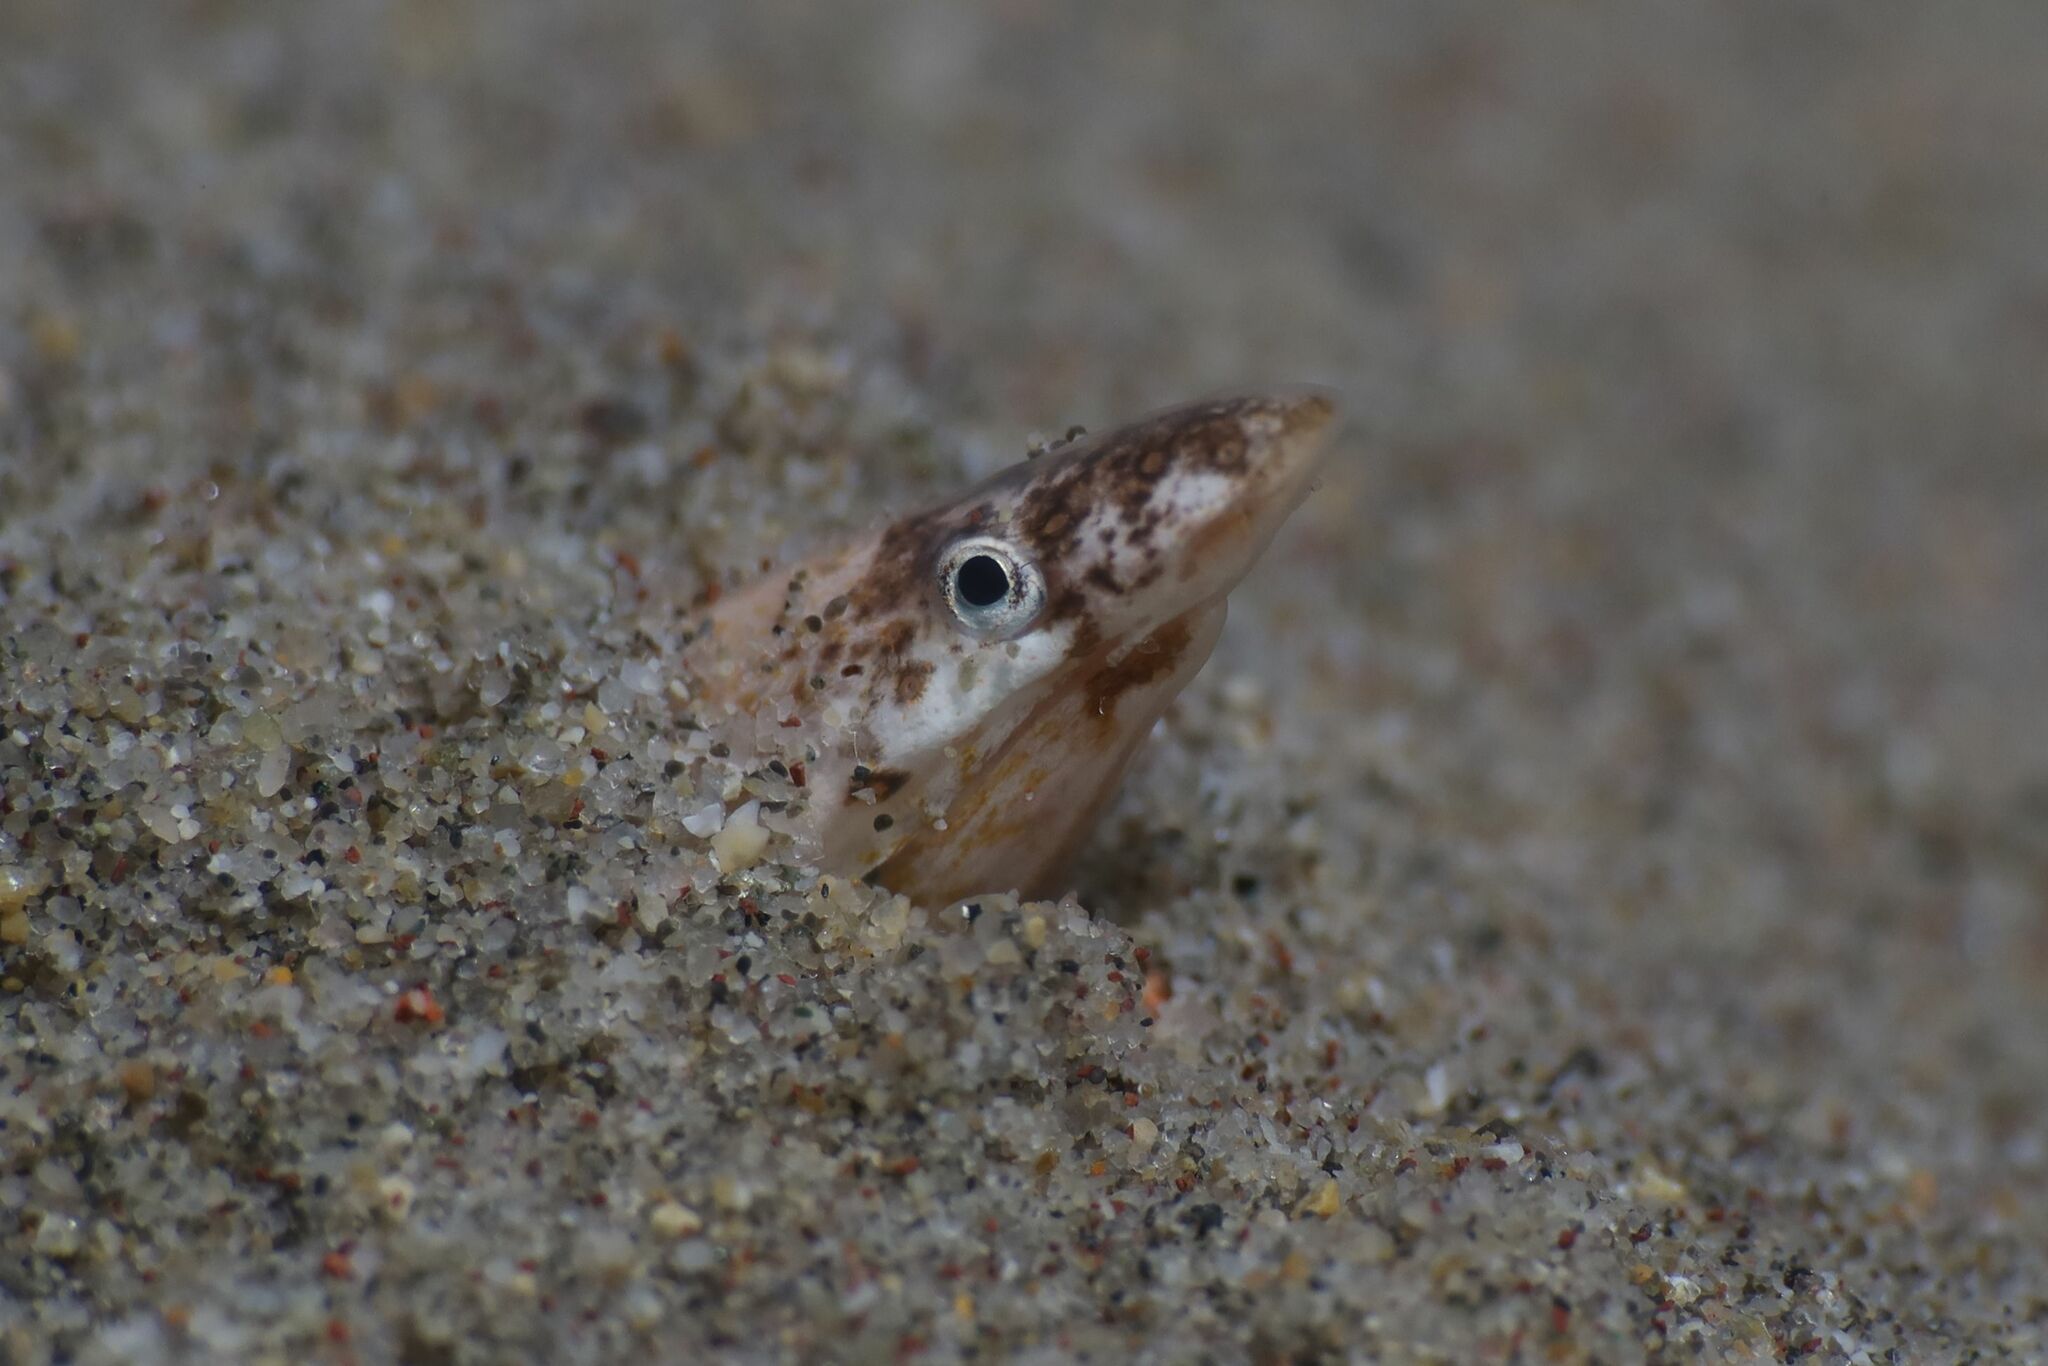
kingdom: Animalia
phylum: Chordata
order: Anguilliformes
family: Ophichthidae
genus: Apterichtus
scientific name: Apterichtus caecus
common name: European finless eel
